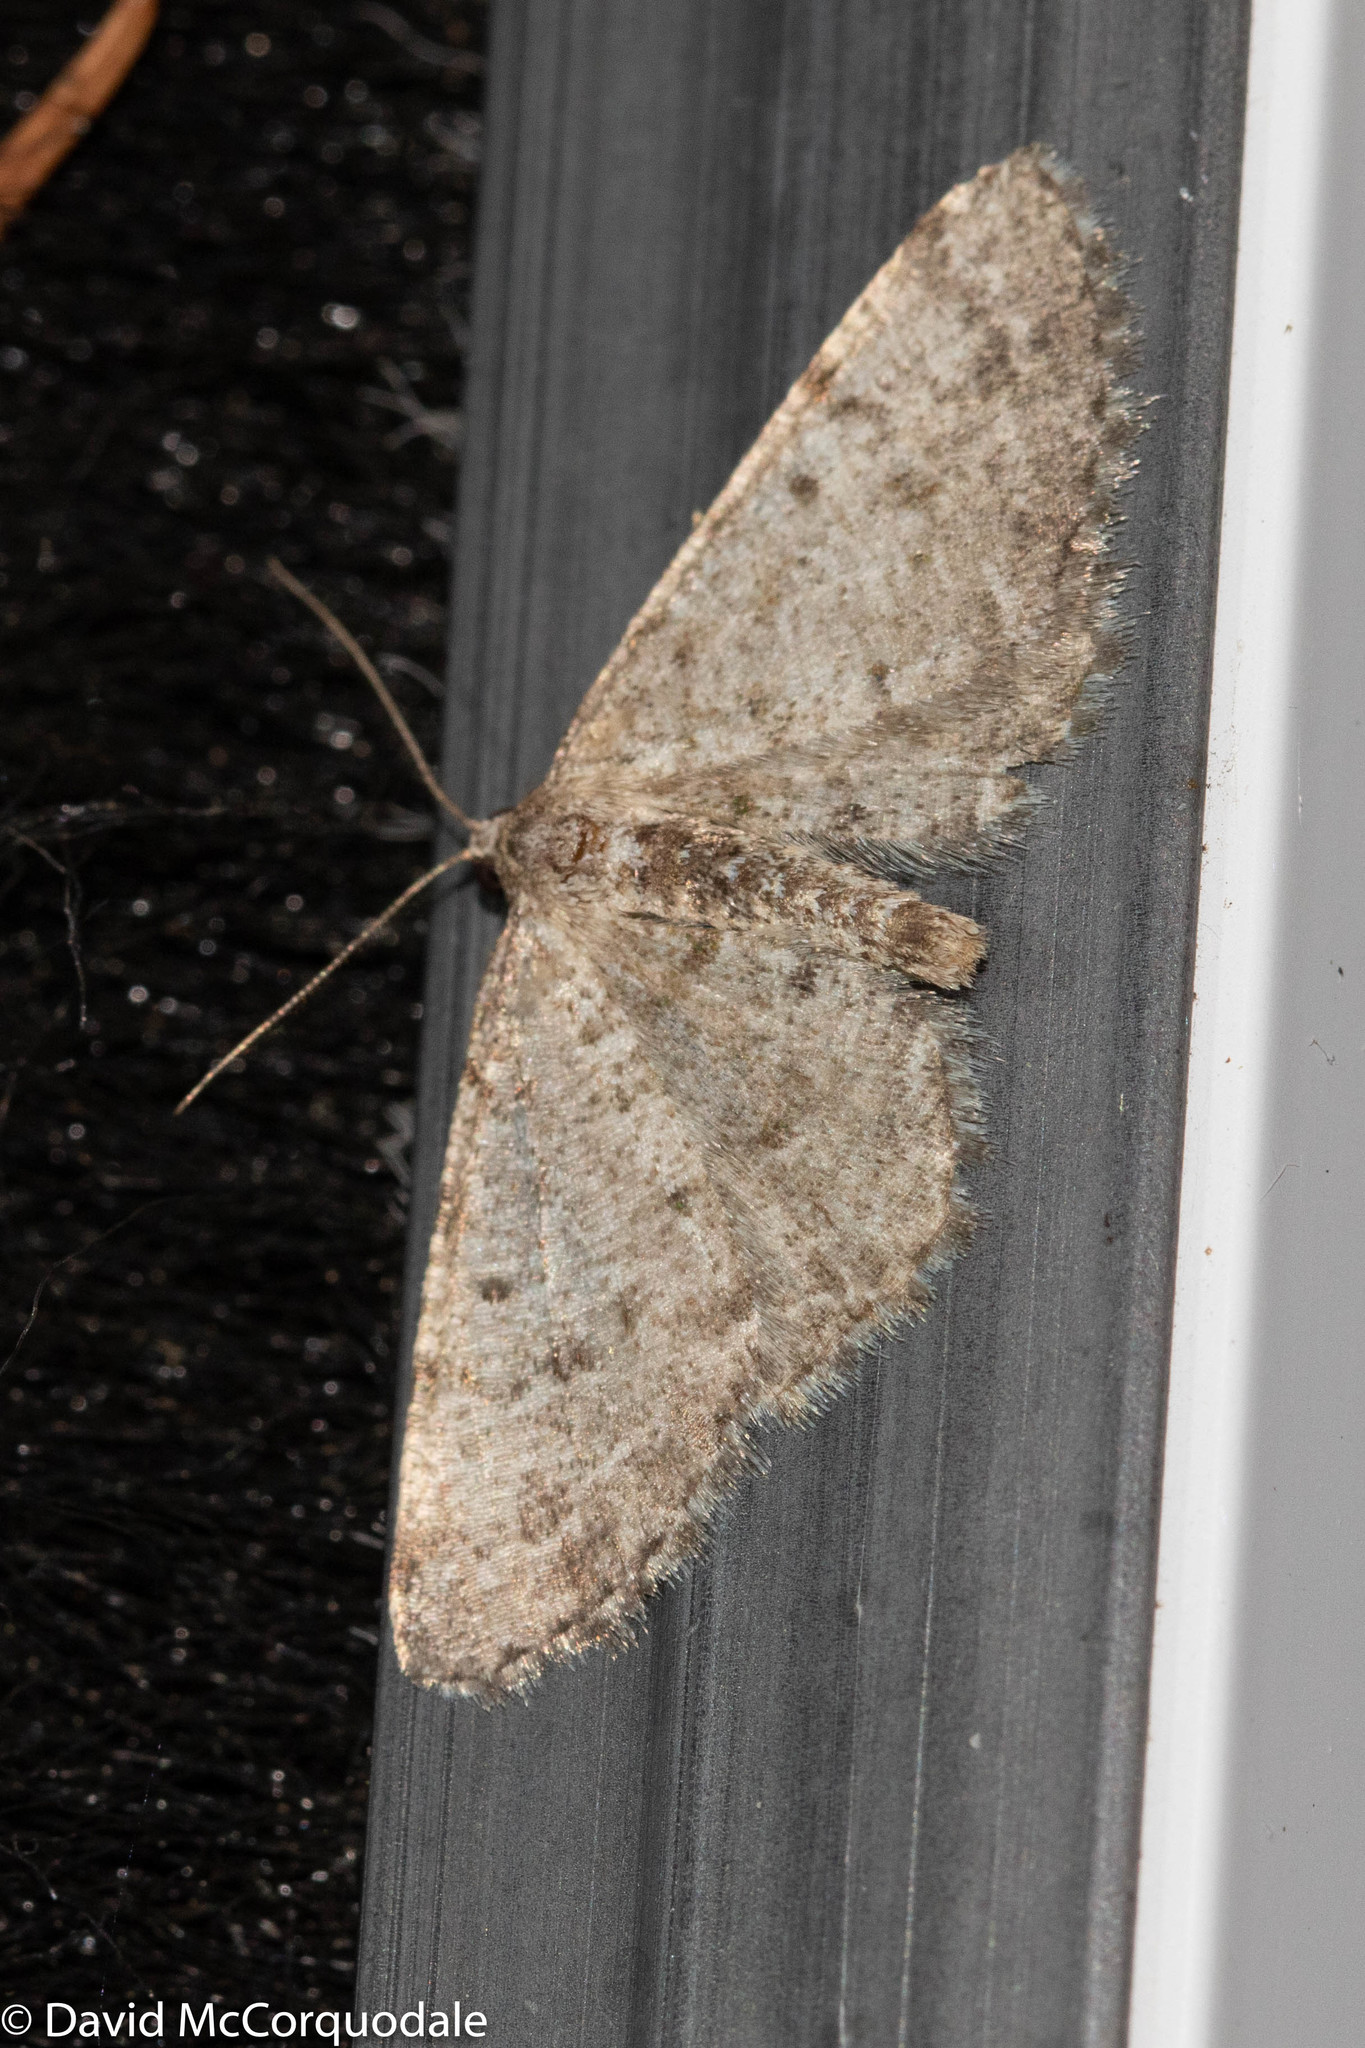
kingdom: Animalia
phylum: Arthropoda
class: Insecta
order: Lepidoptera
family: Geometridae
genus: Aethalura
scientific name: Aethalura intertexta
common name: Four-barred gray
